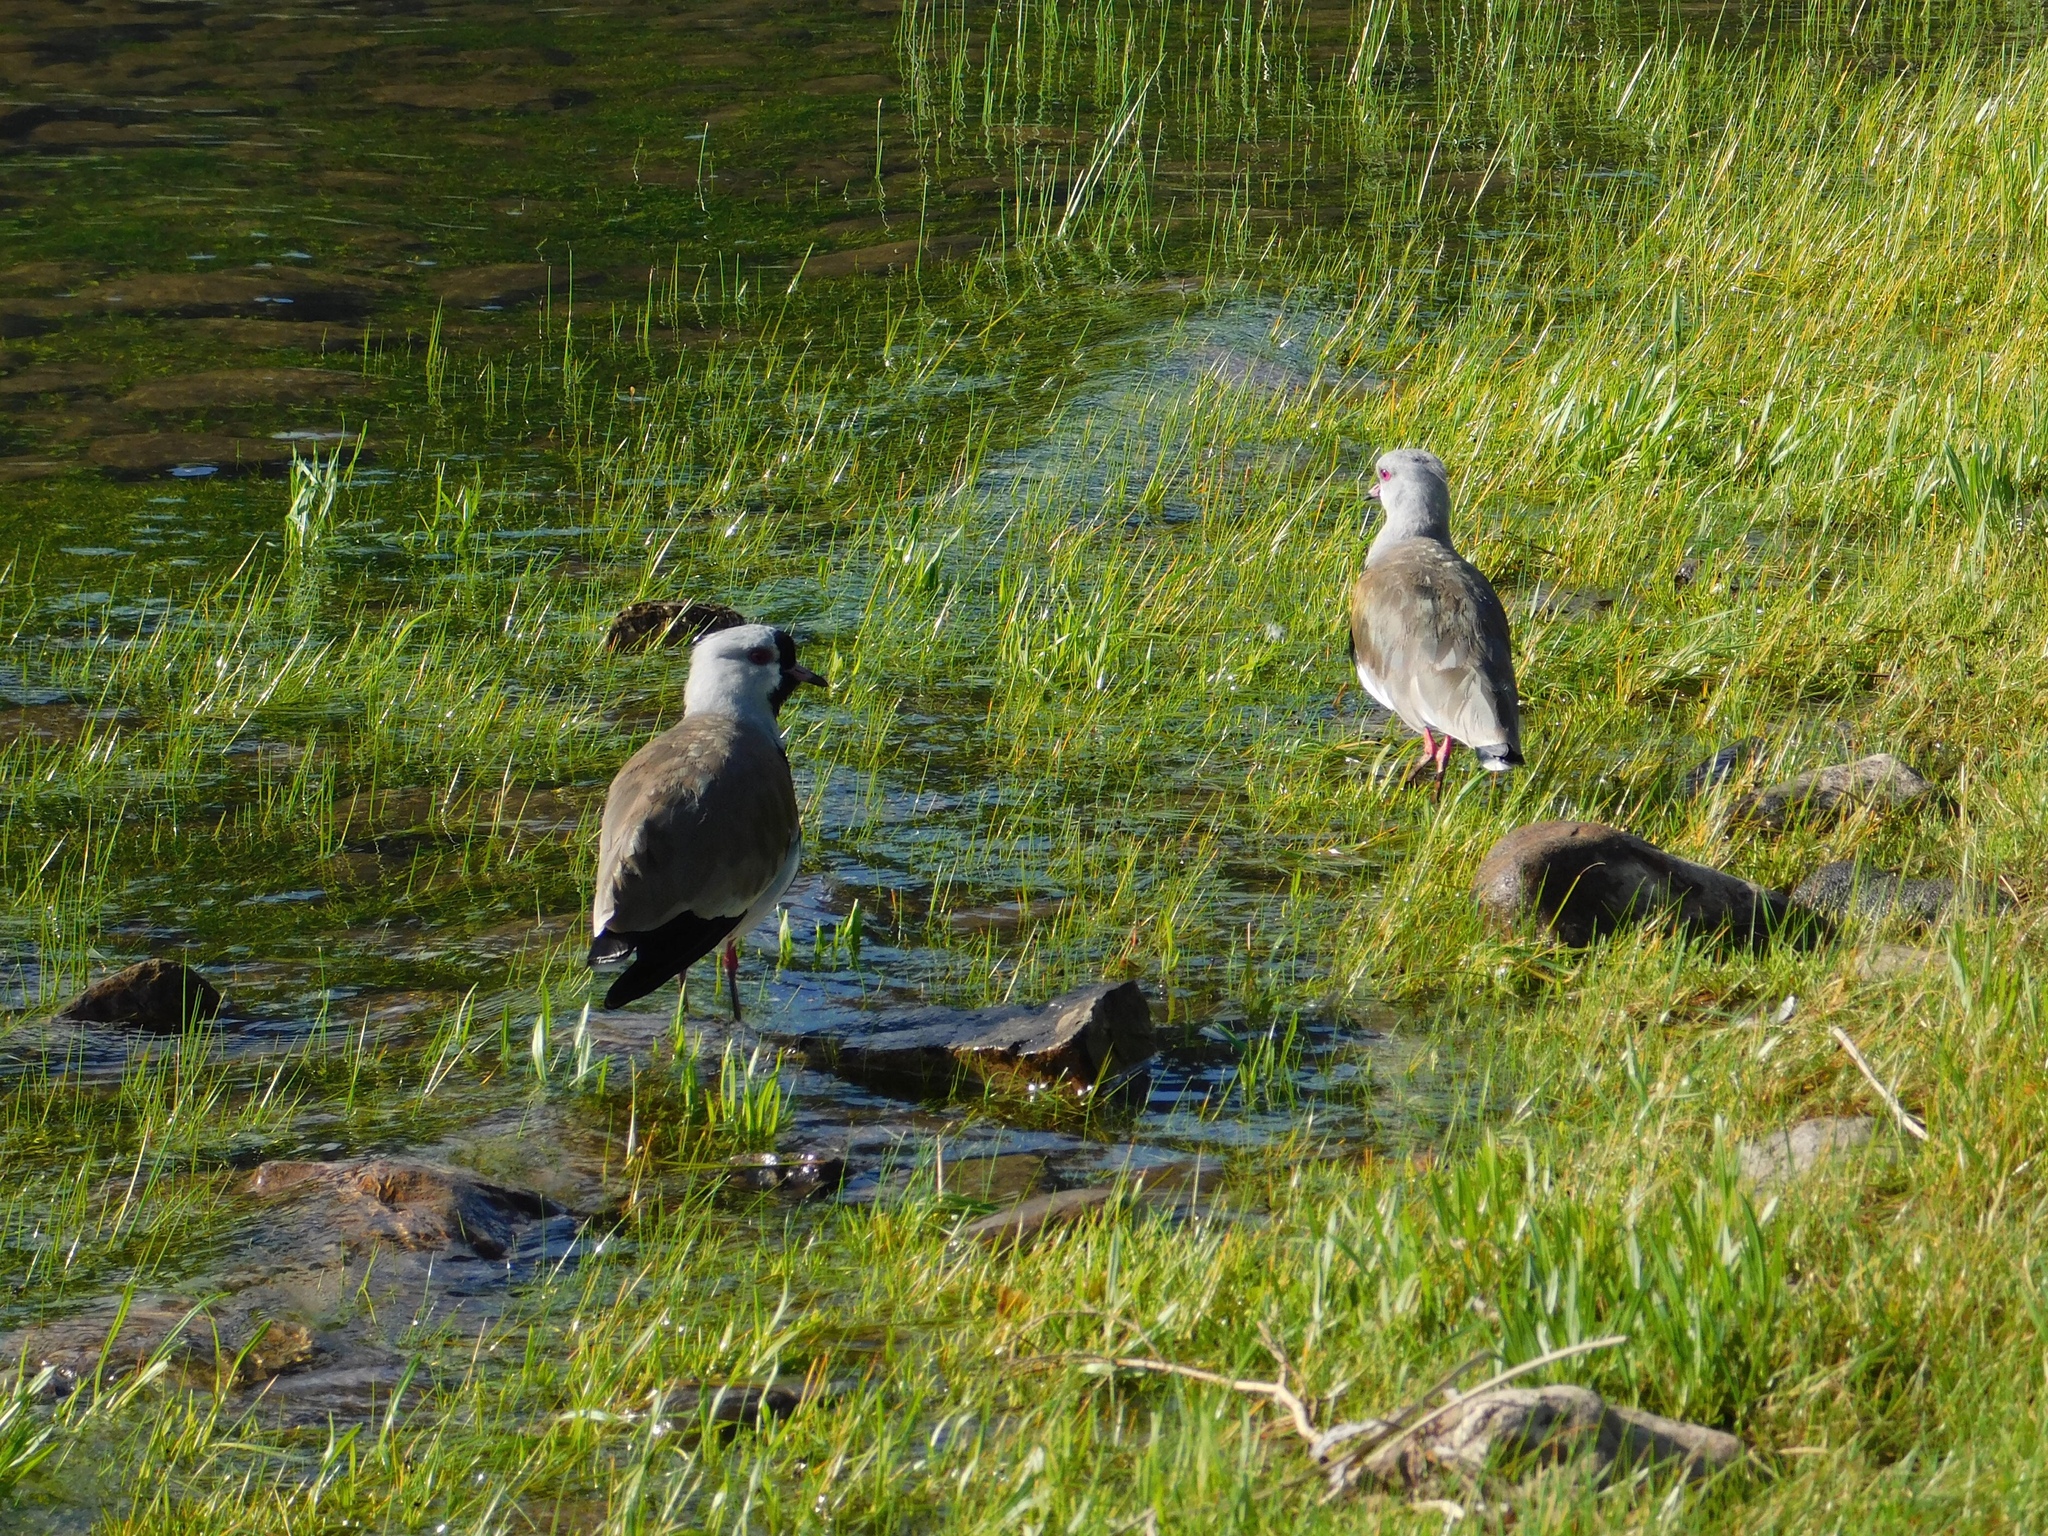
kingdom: Animalia
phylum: Chordata
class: Aves
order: Charadriiformes
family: Charadriidae
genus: Vanellus
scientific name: Vanellus chilensis
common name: Southern lapwing
